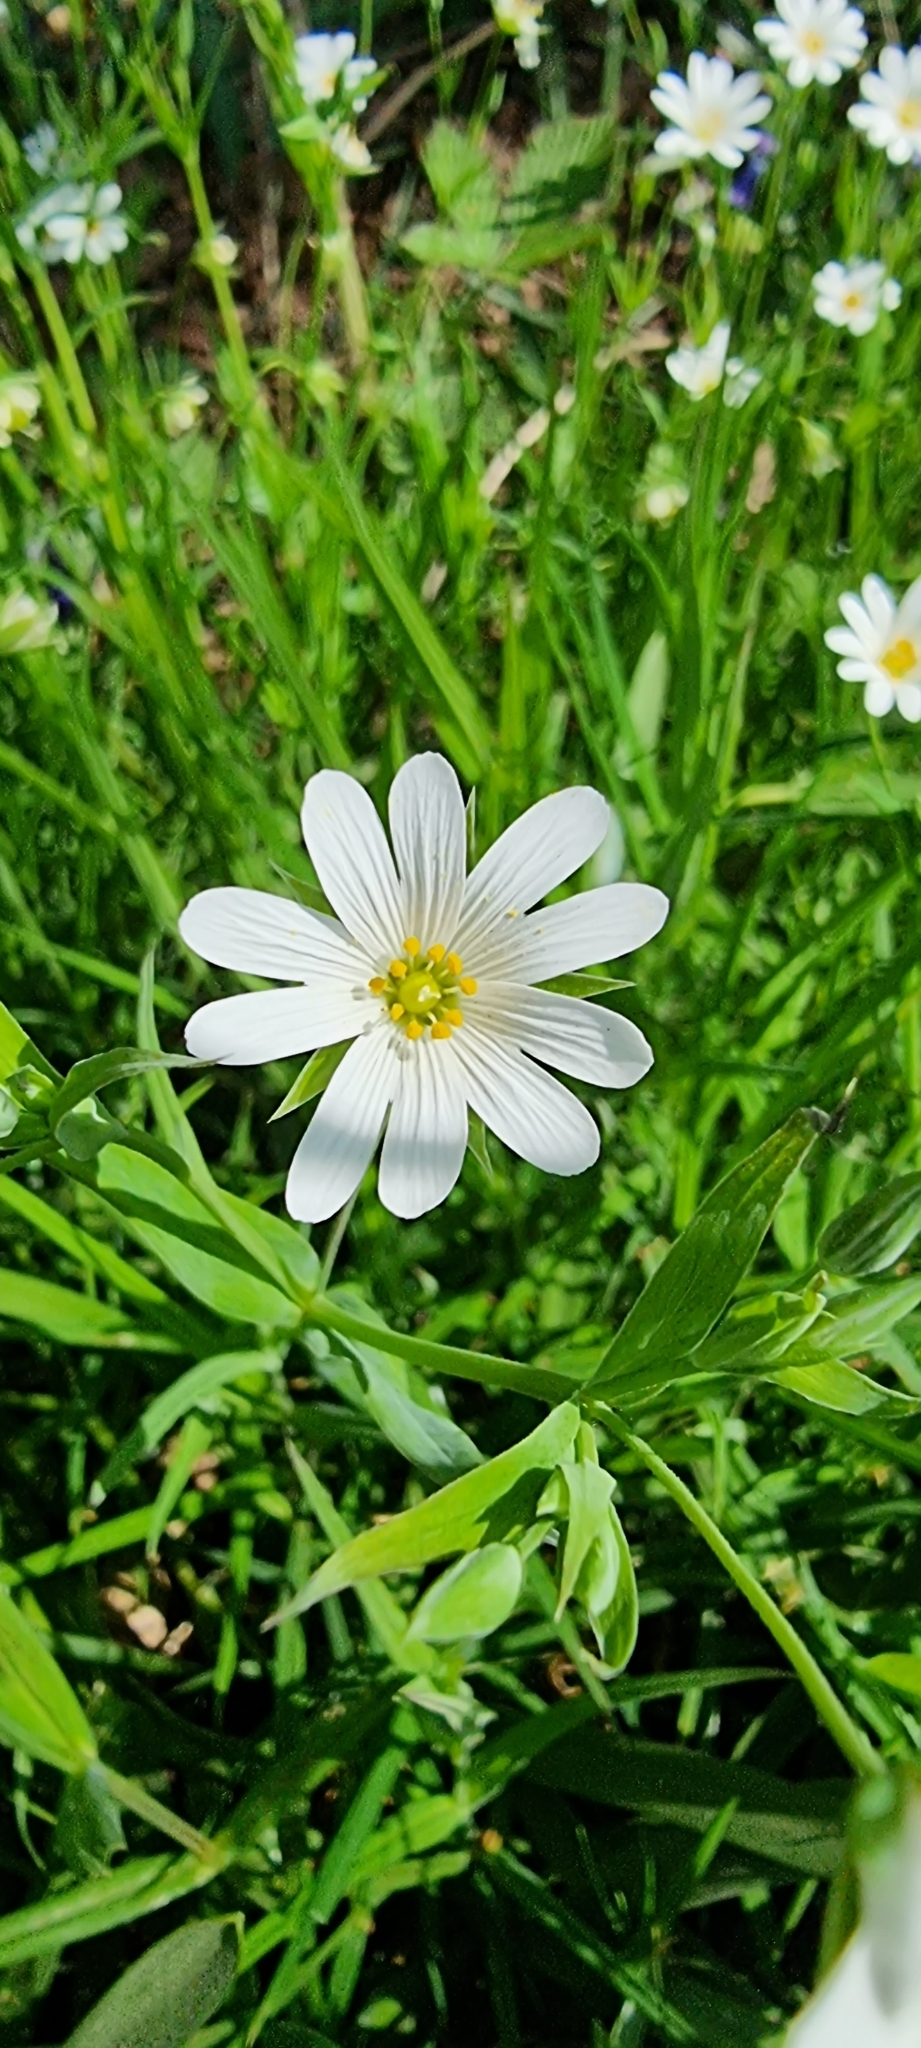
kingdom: Plantae
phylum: Tracheophyta
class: Magnoliopsida
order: Caryophyllales
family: Caryophyllaceae
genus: Rabelera
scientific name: Rabelera holostea
